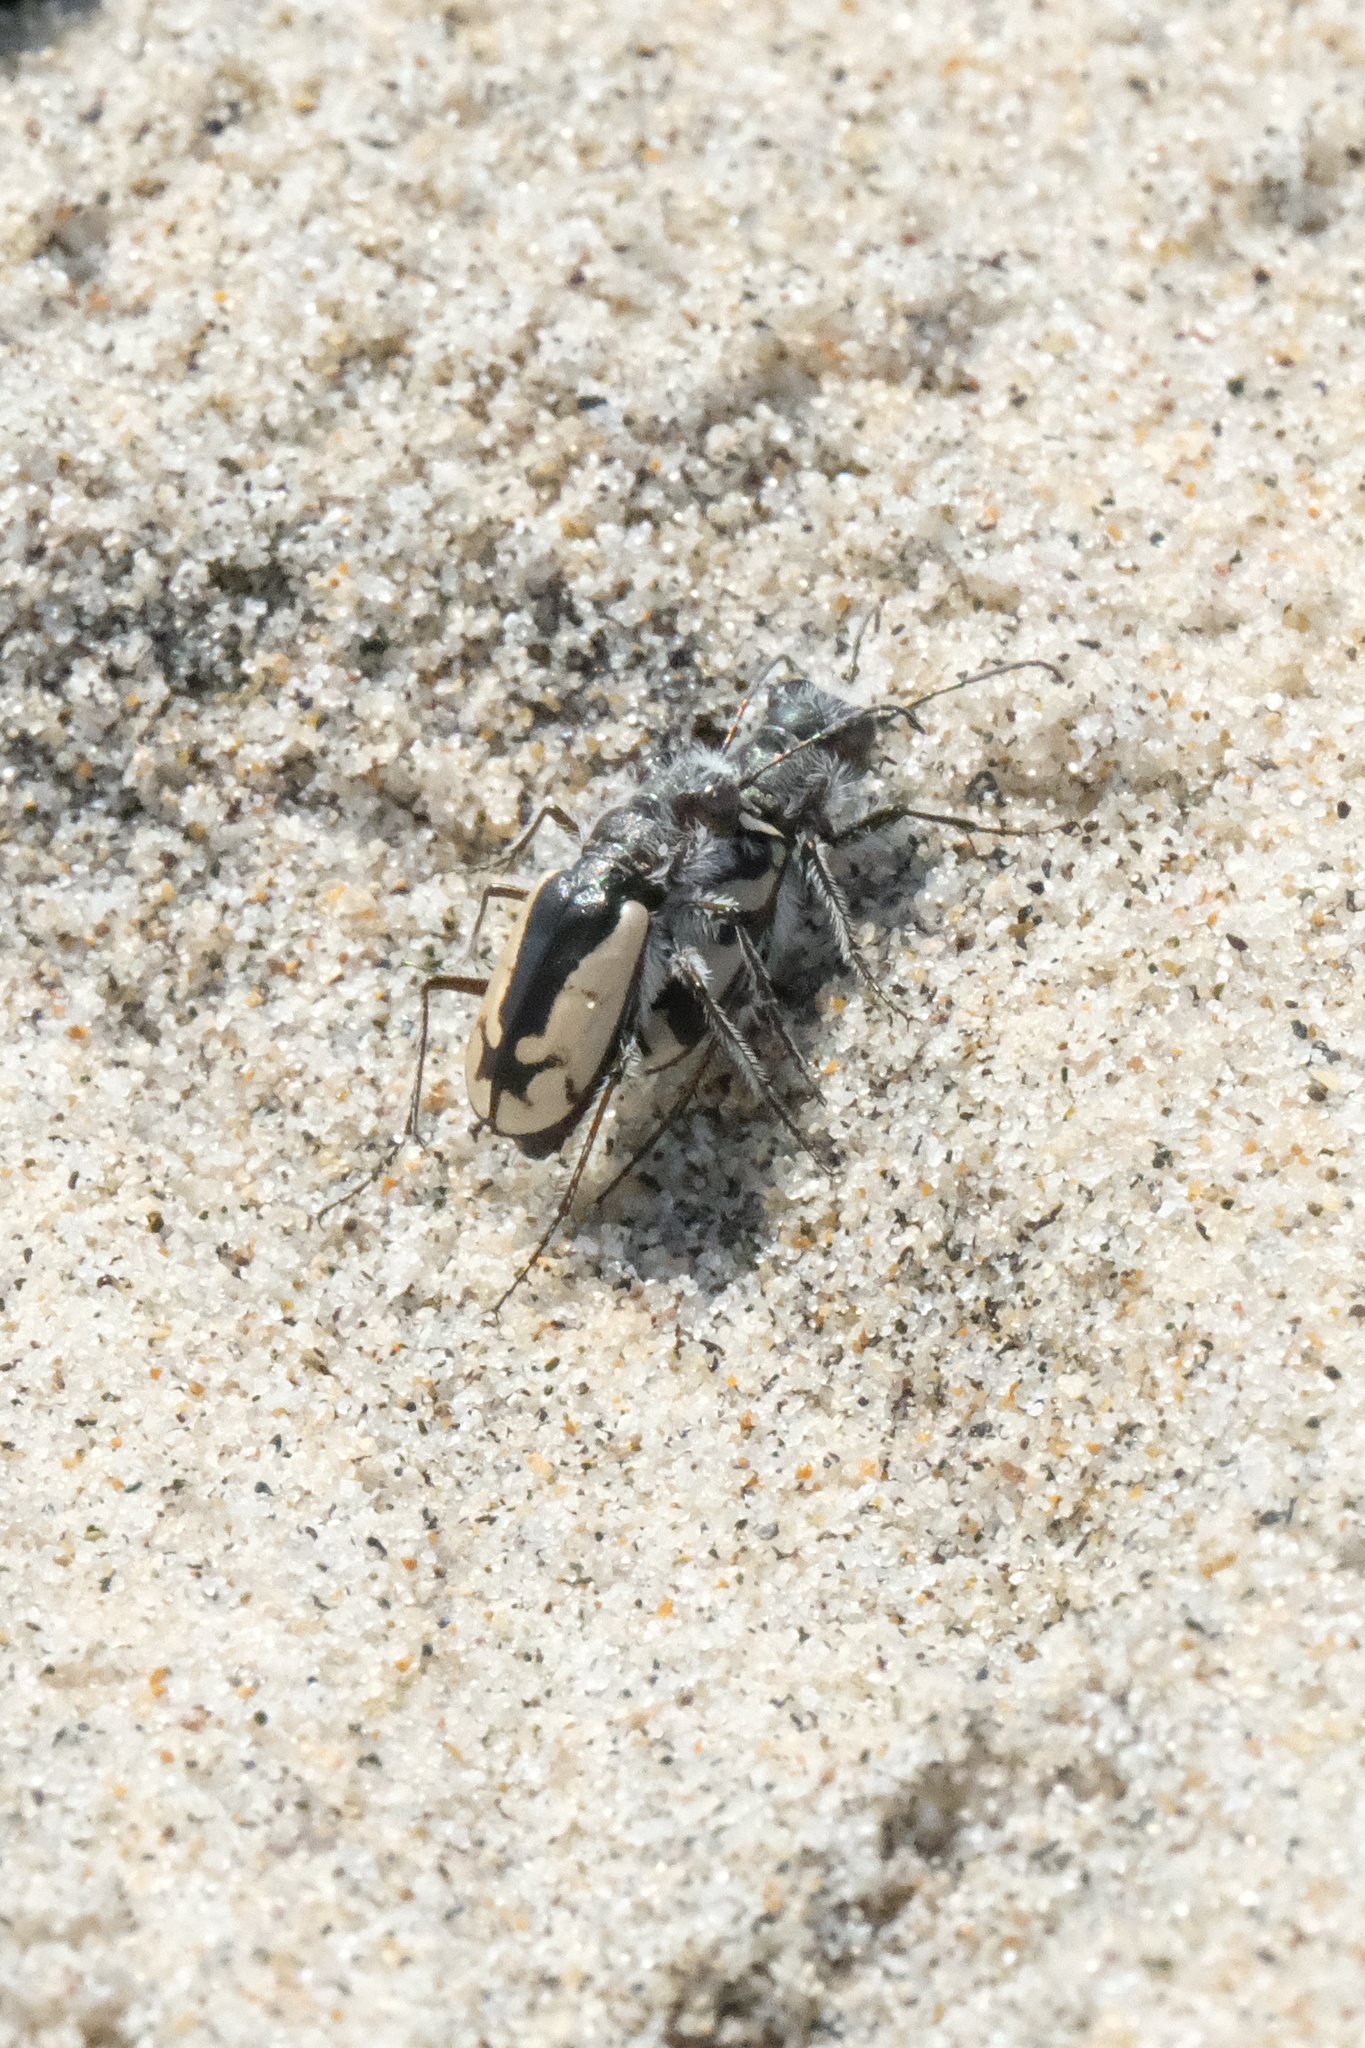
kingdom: Animalia
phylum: Arthropoda
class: Insecta
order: Coleoptera
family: Carabidae
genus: Cicindela
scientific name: Cicindela latesignata
